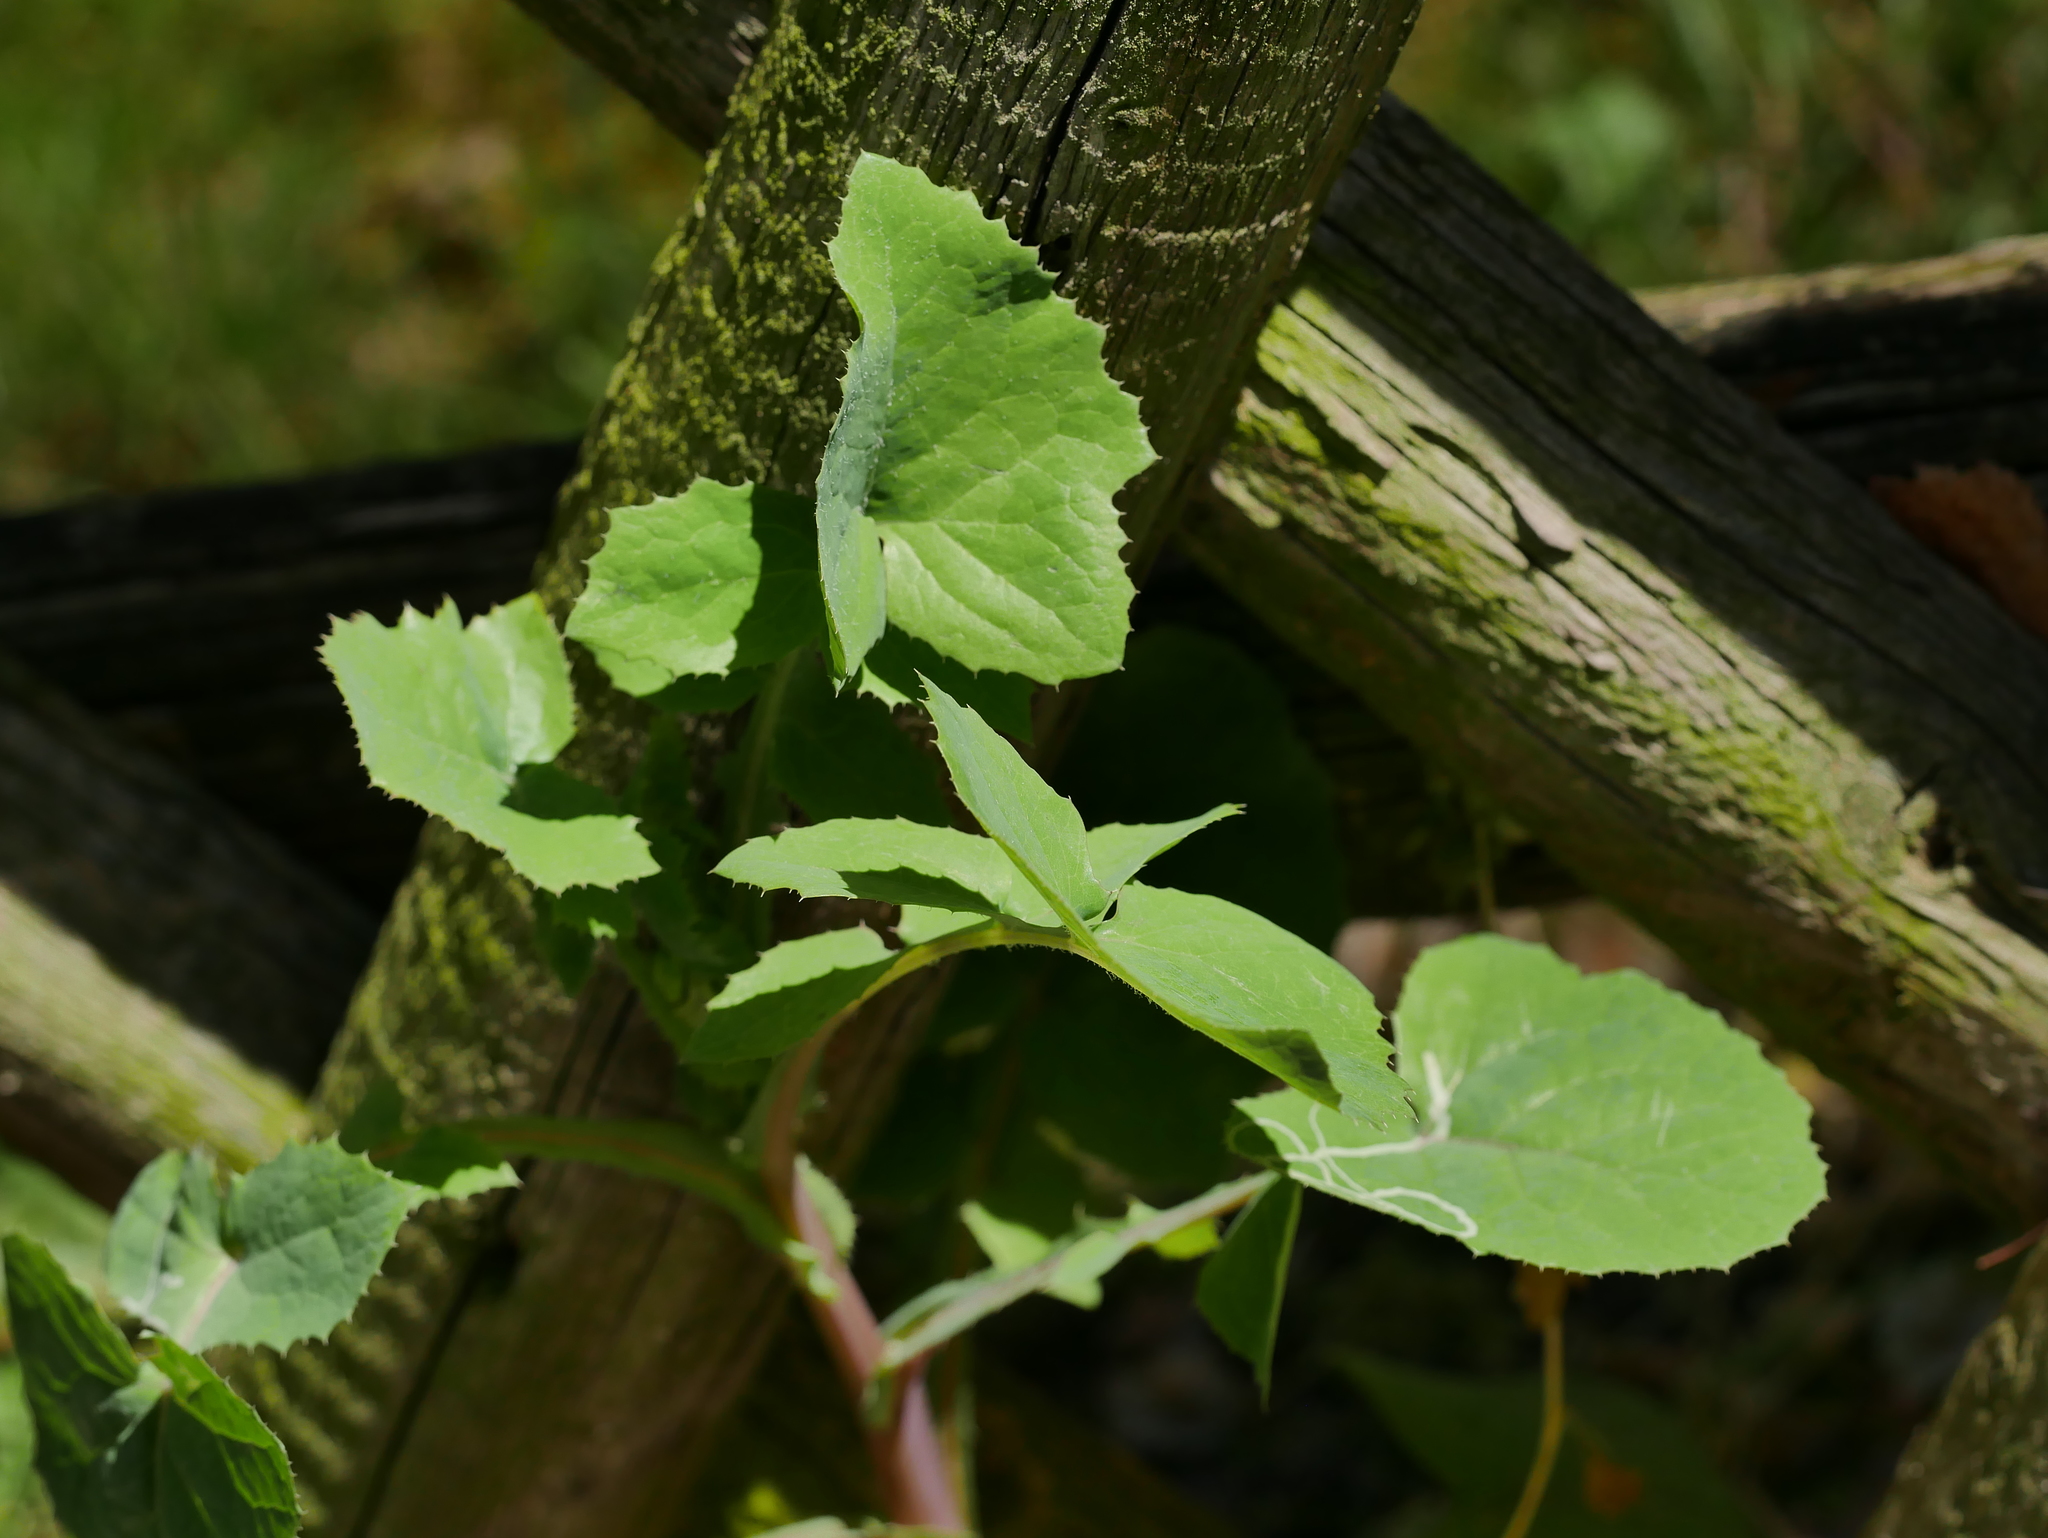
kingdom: Plantae
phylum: Tracheophyta
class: Magnoliopsida
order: Asterales
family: Asteraceae
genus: Sonchus
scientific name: Sonchus oleraceus
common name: Common sowthistle
